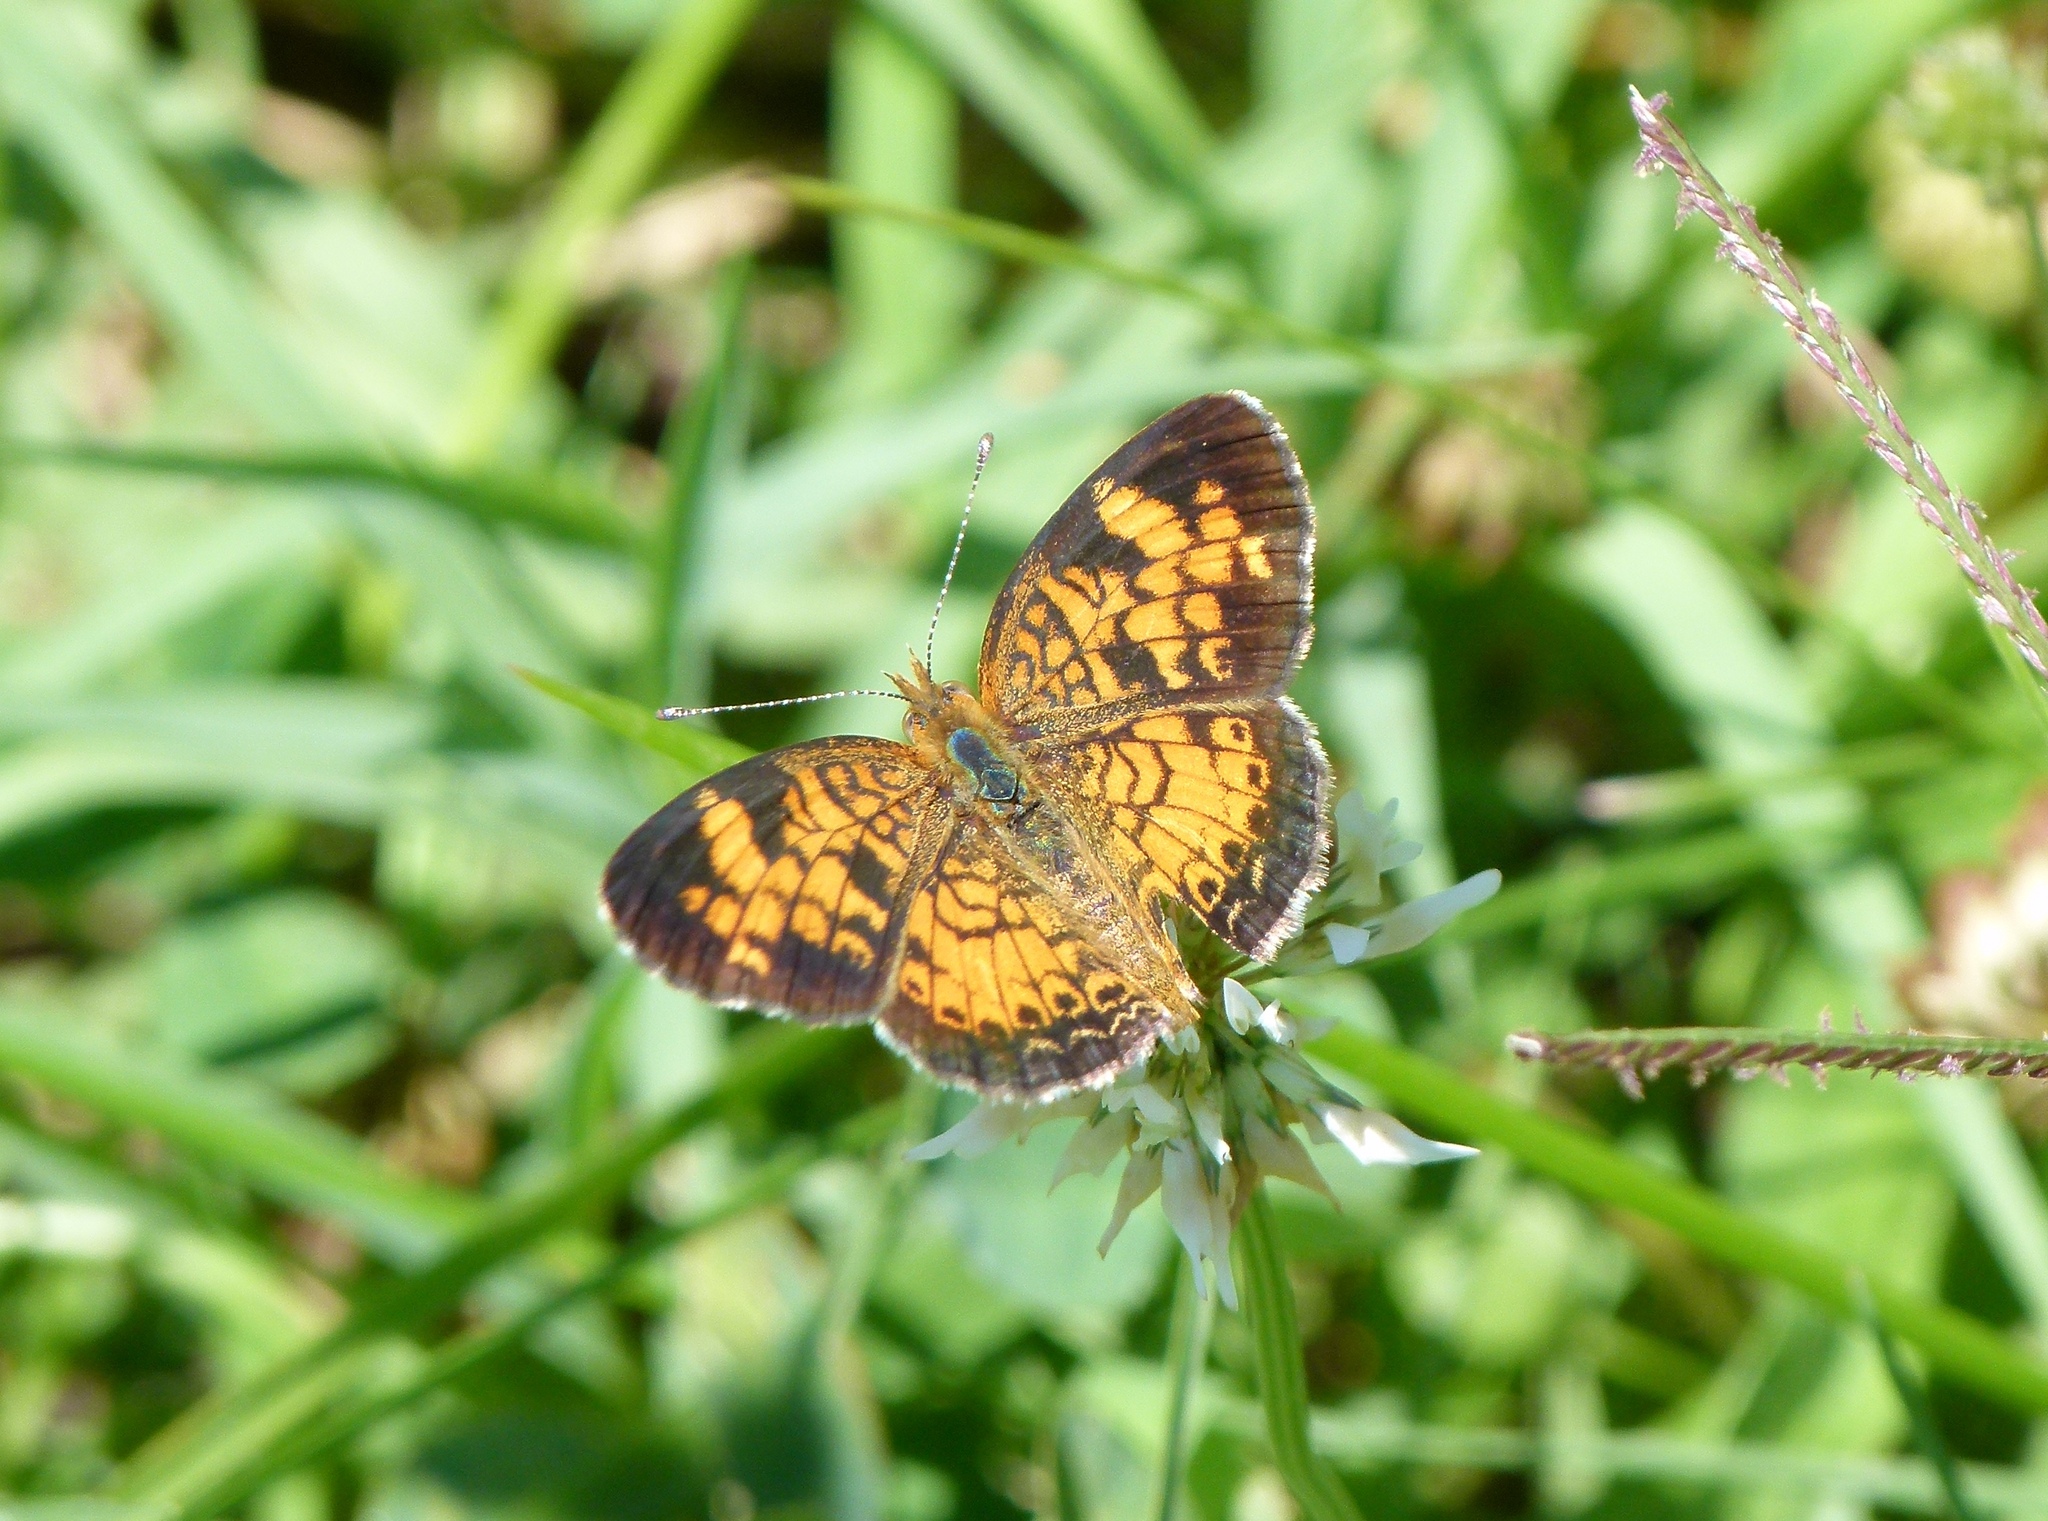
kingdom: Animalia
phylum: Arthropoda
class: Insecta
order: Lepidoptera
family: Nymphalidae
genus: Phyciodes
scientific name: Phyciodes tharos
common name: Pearl crescent
